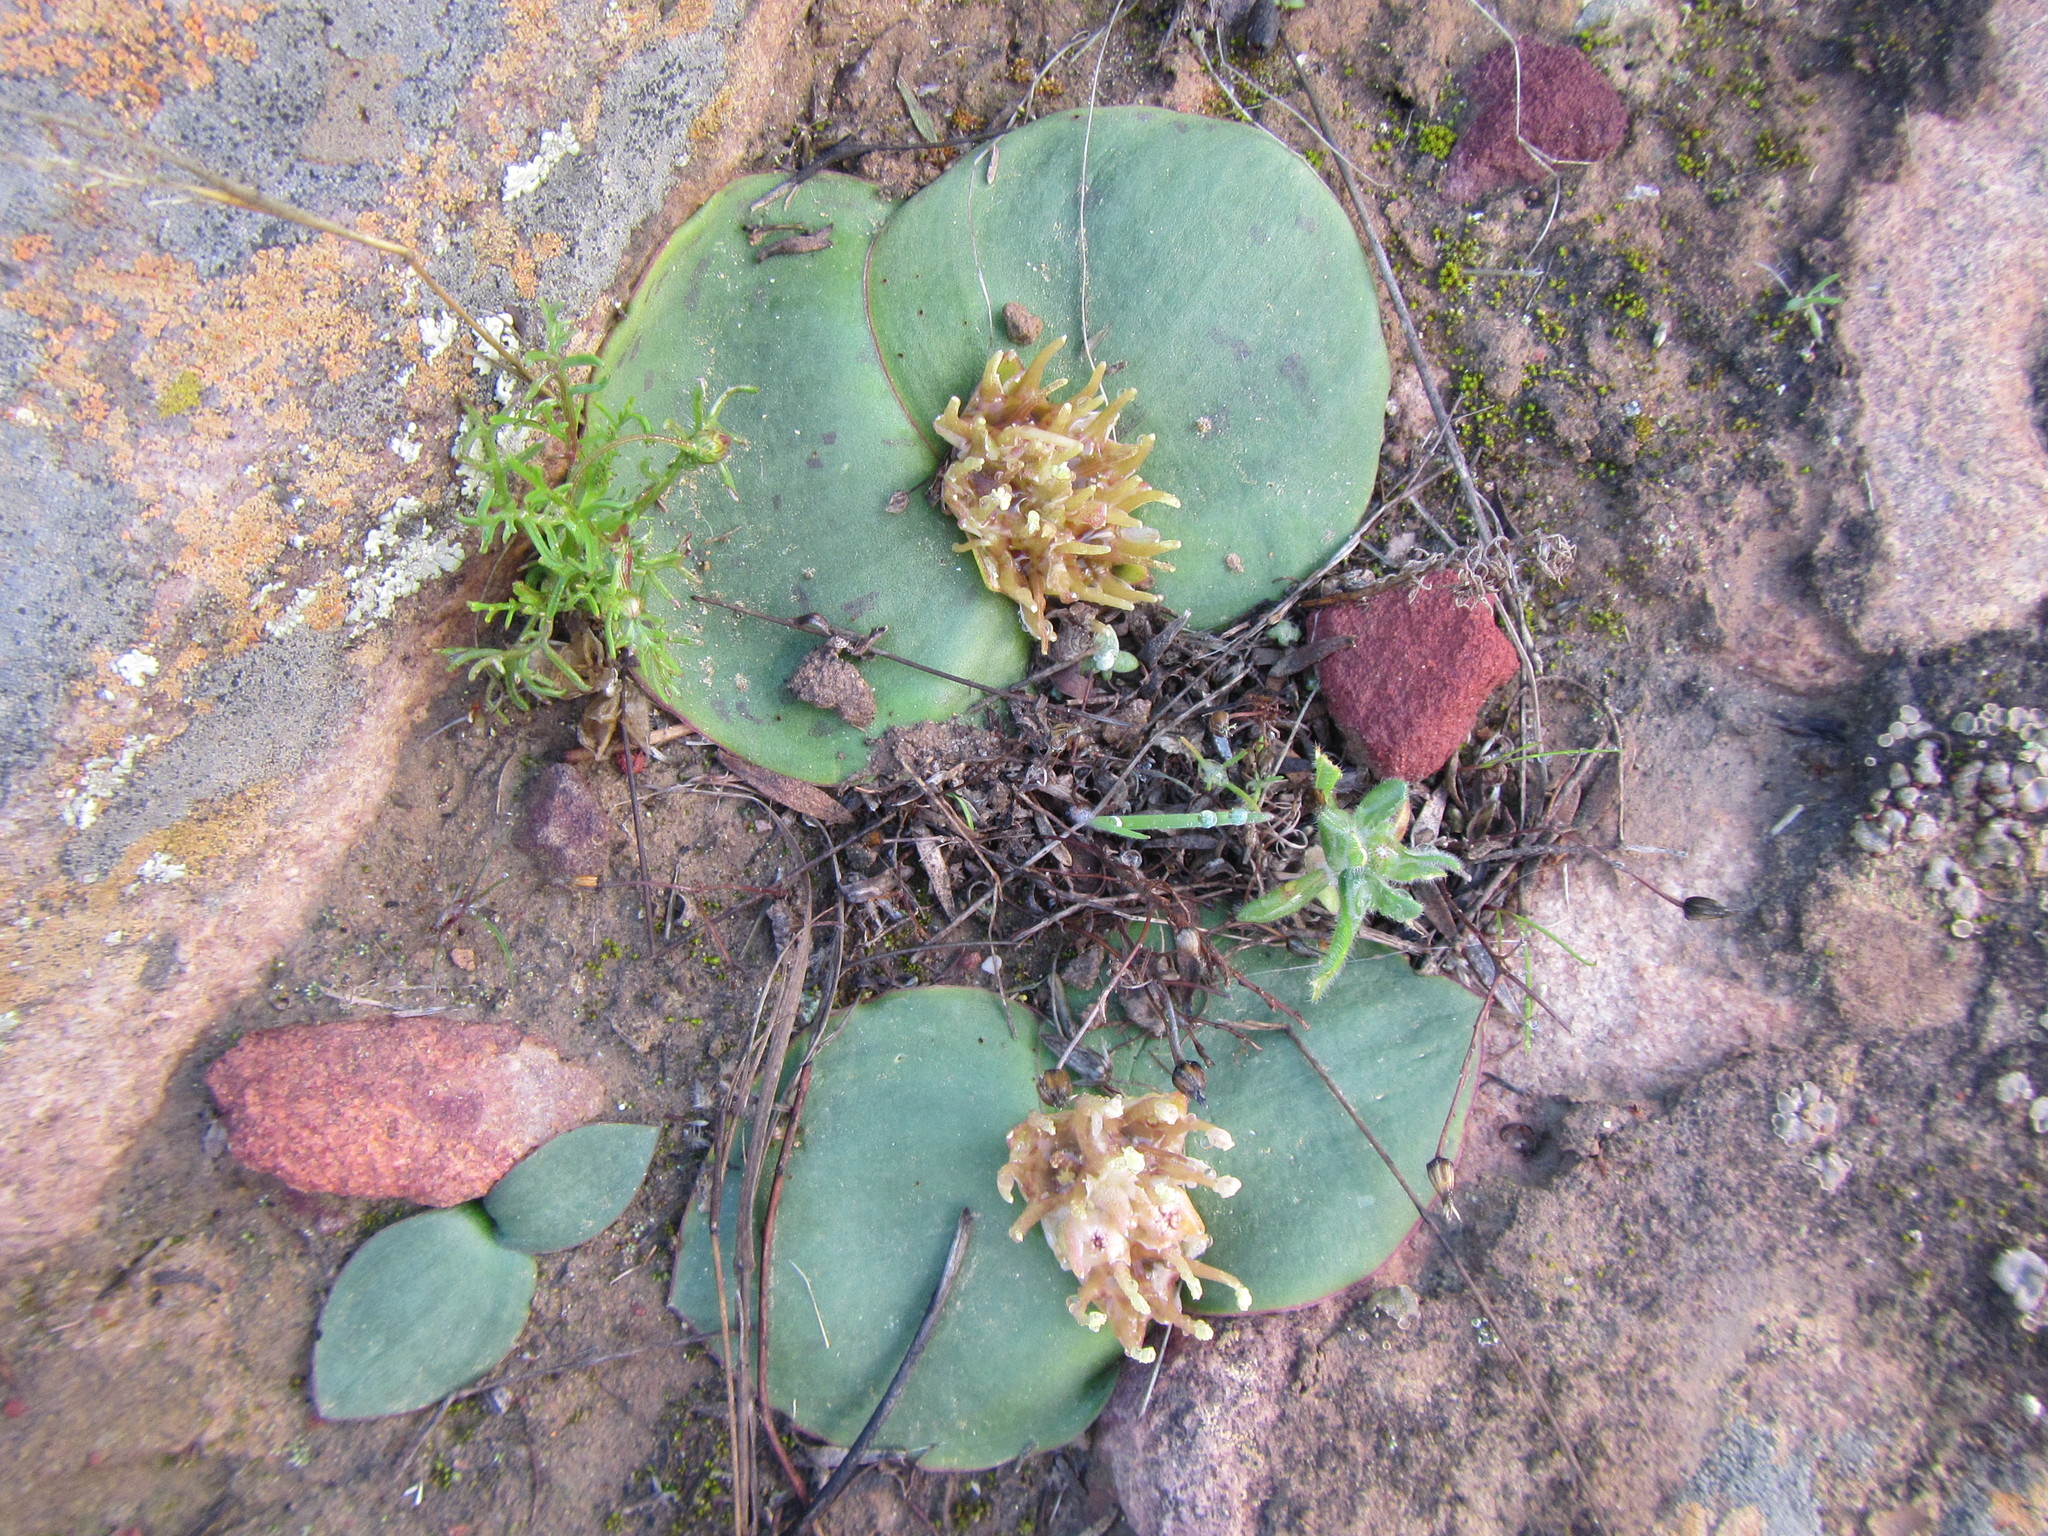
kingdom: Plantae
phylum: Tracheophyta
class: Liliopsida
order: Asparagales
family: Asparagaceae
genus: Massonia
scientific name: Massonia depressa
